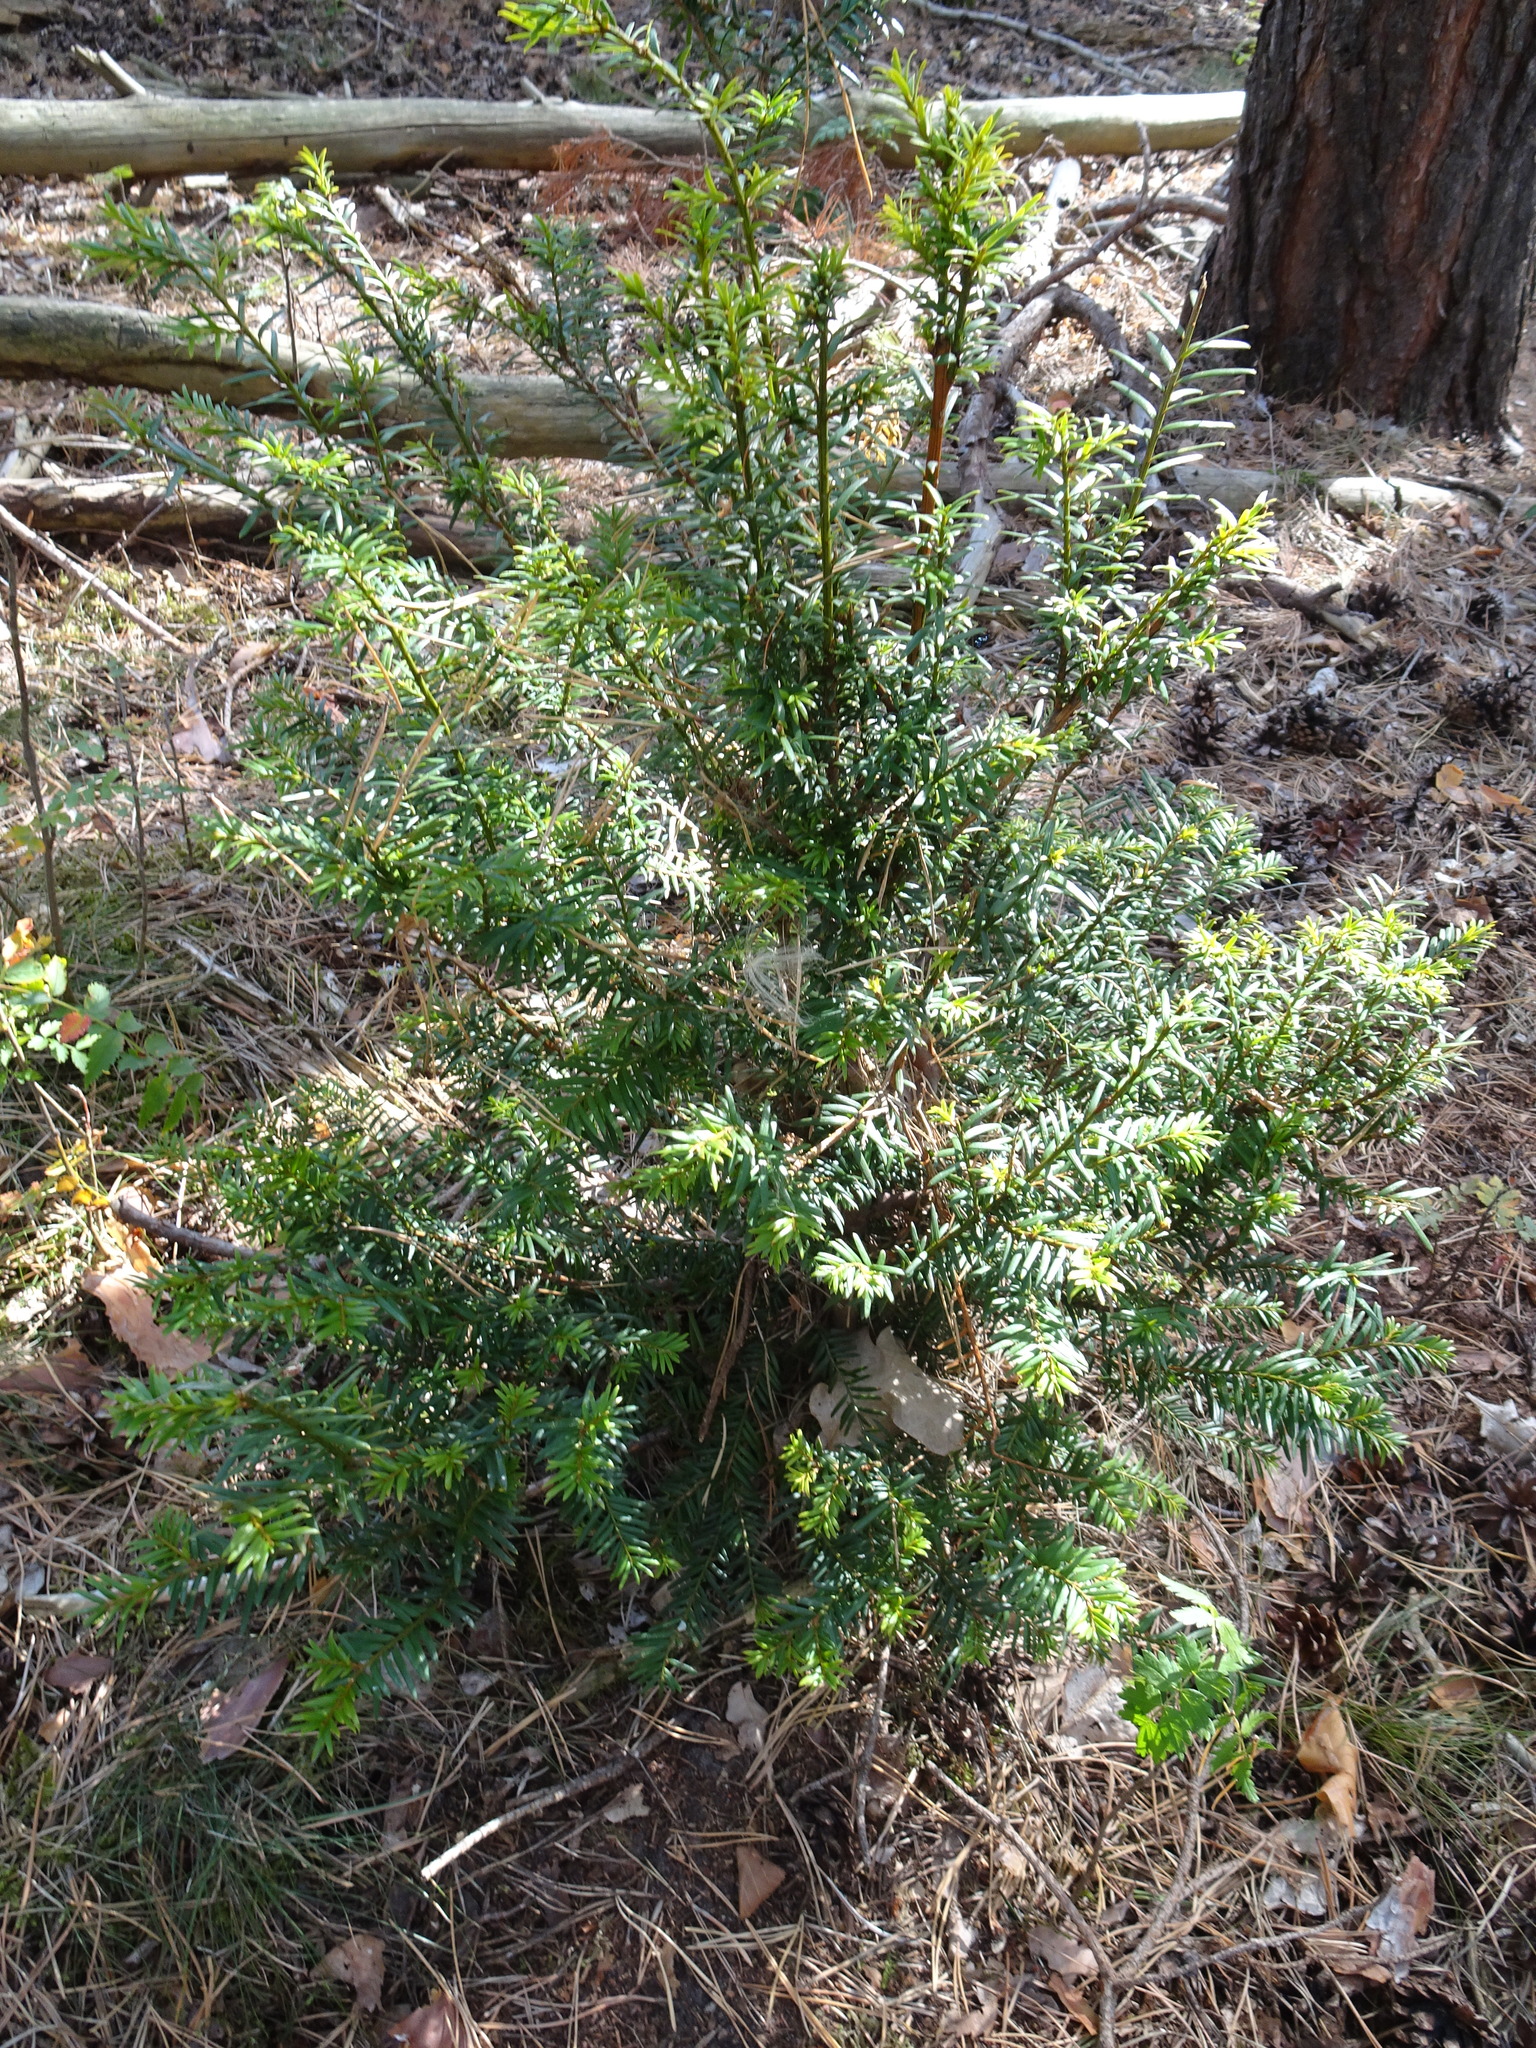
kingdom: Plantae
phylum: Tracheophyta
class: Pinopsida
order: Pinales
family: Taxaceae
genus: Taxus
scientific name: Taxus baccata
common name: Yew
